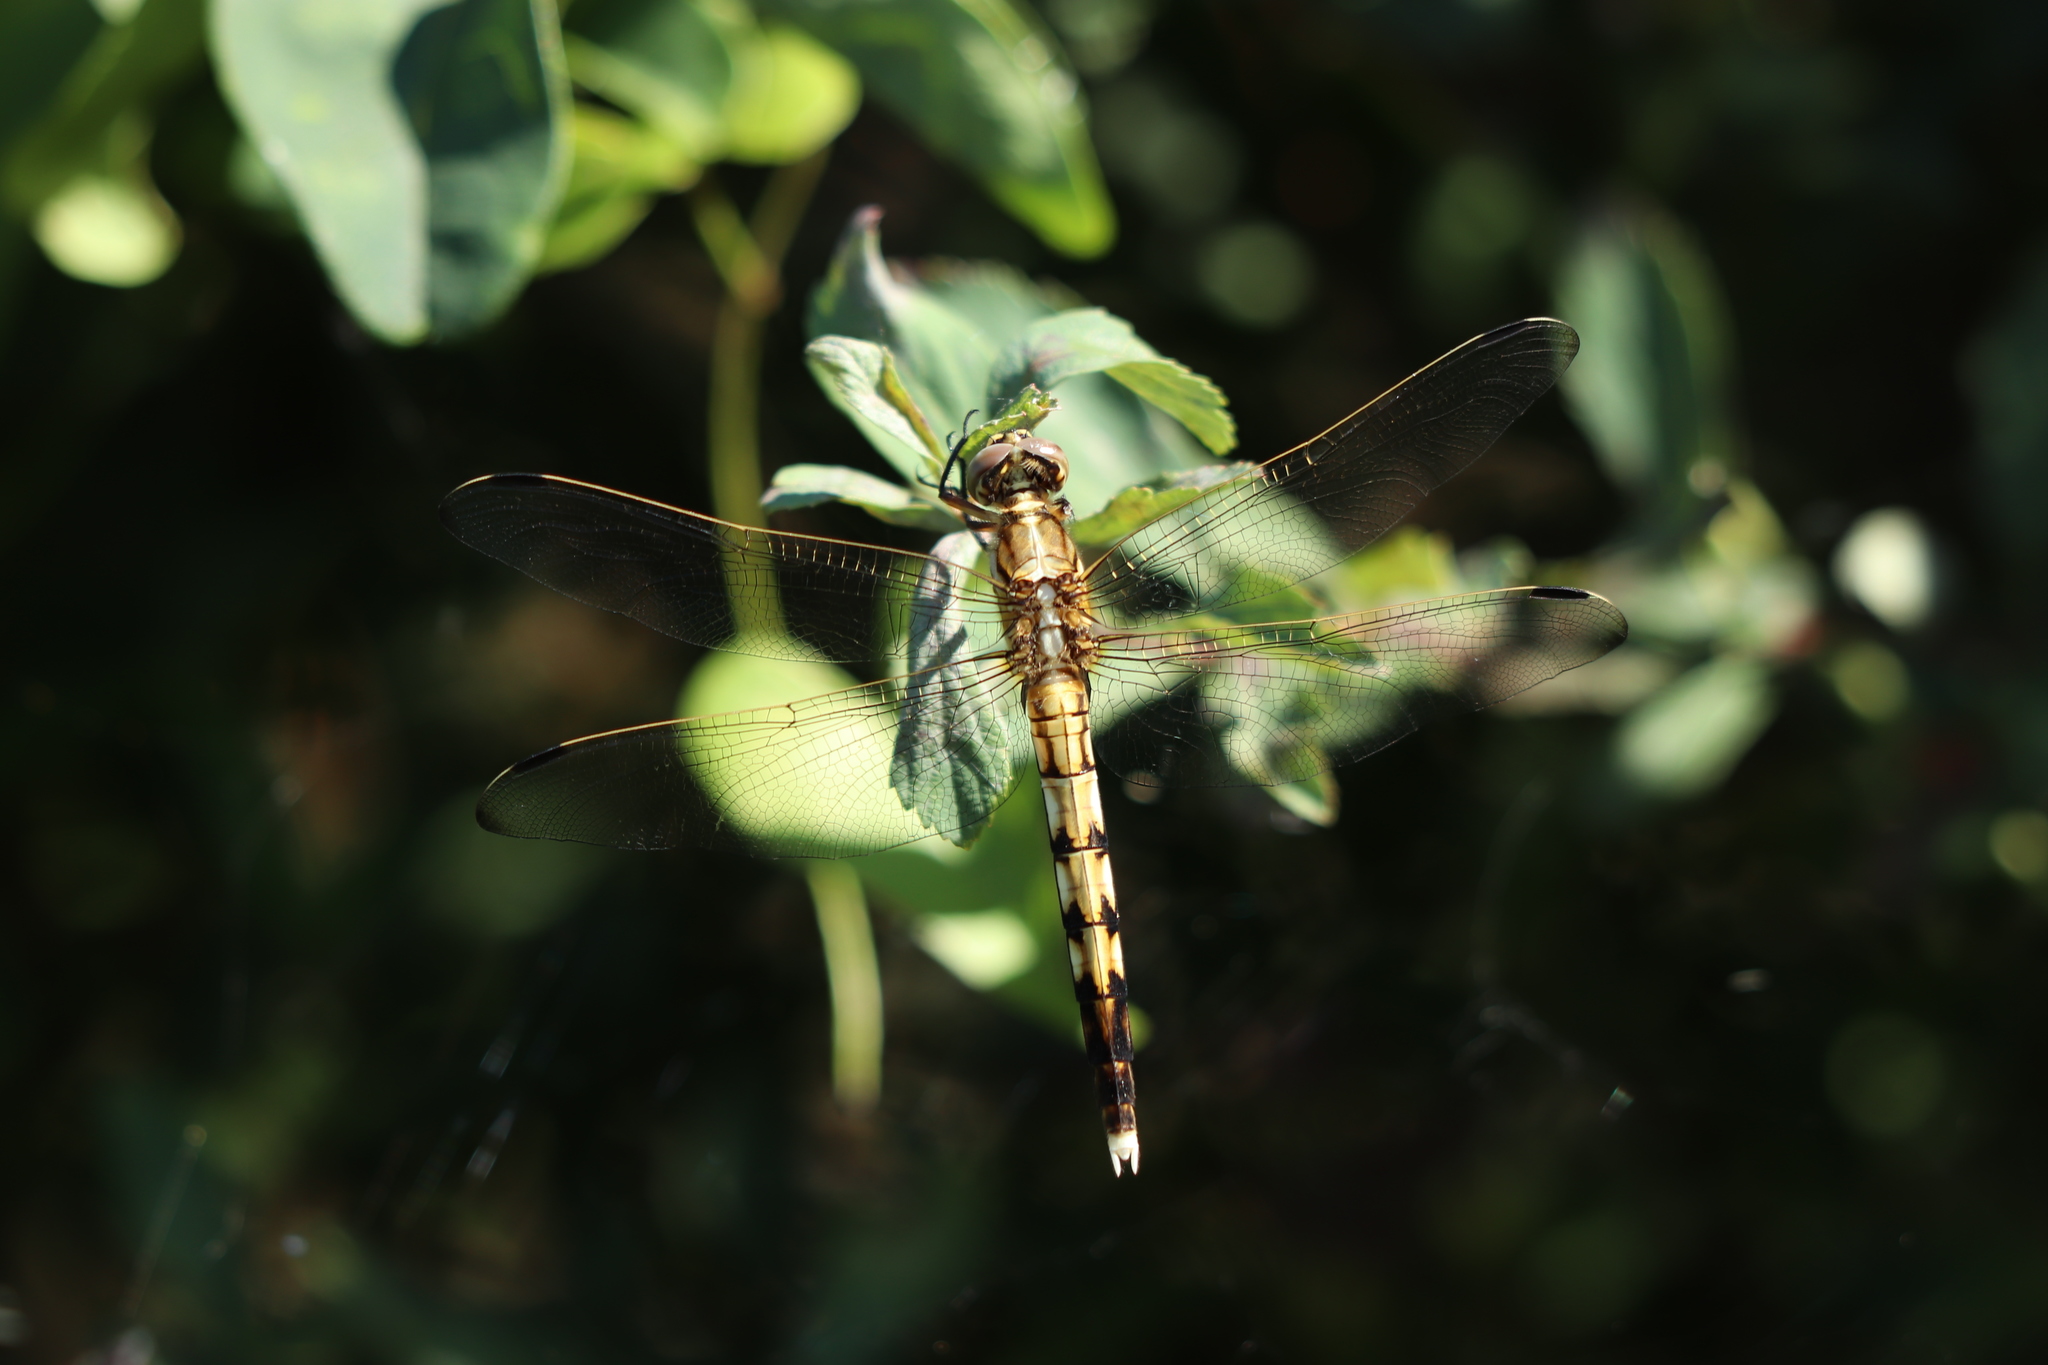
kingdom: Animalia
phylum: Arthropoda
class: Insecta
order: Odonata
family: Libellulidae
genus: Orthetrum
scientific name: Orthetrum albistylum
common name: White-tailed skimmer
